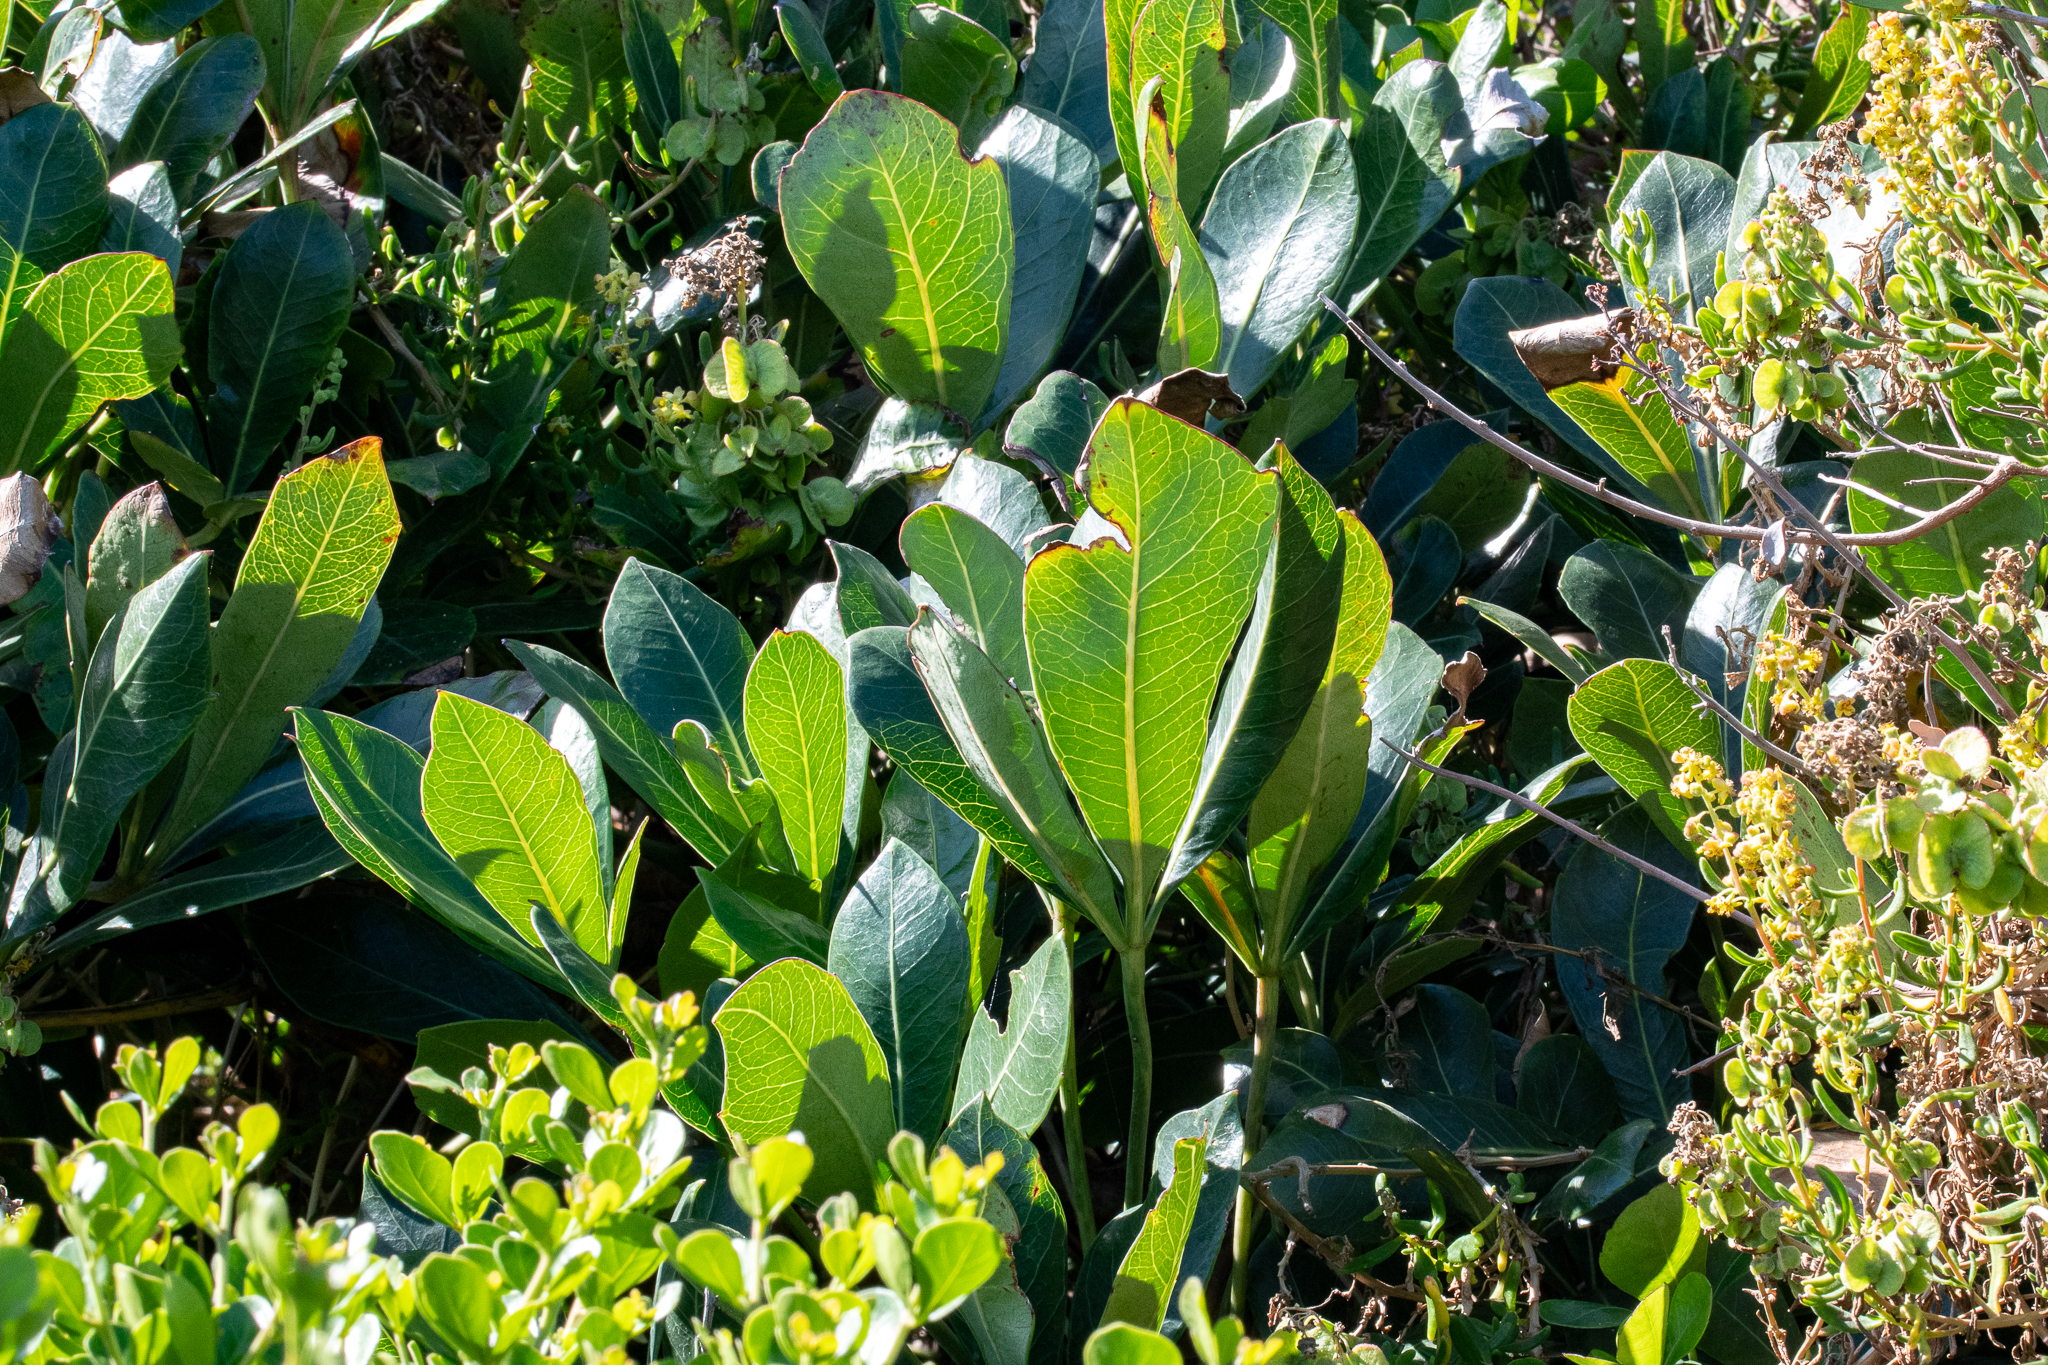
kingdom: Plantae
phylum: Tracheophyta
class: Magnoliopsida
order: Apiales
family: Araliaceae
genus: Cussonia
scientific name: Cussonia thyrsiflora
